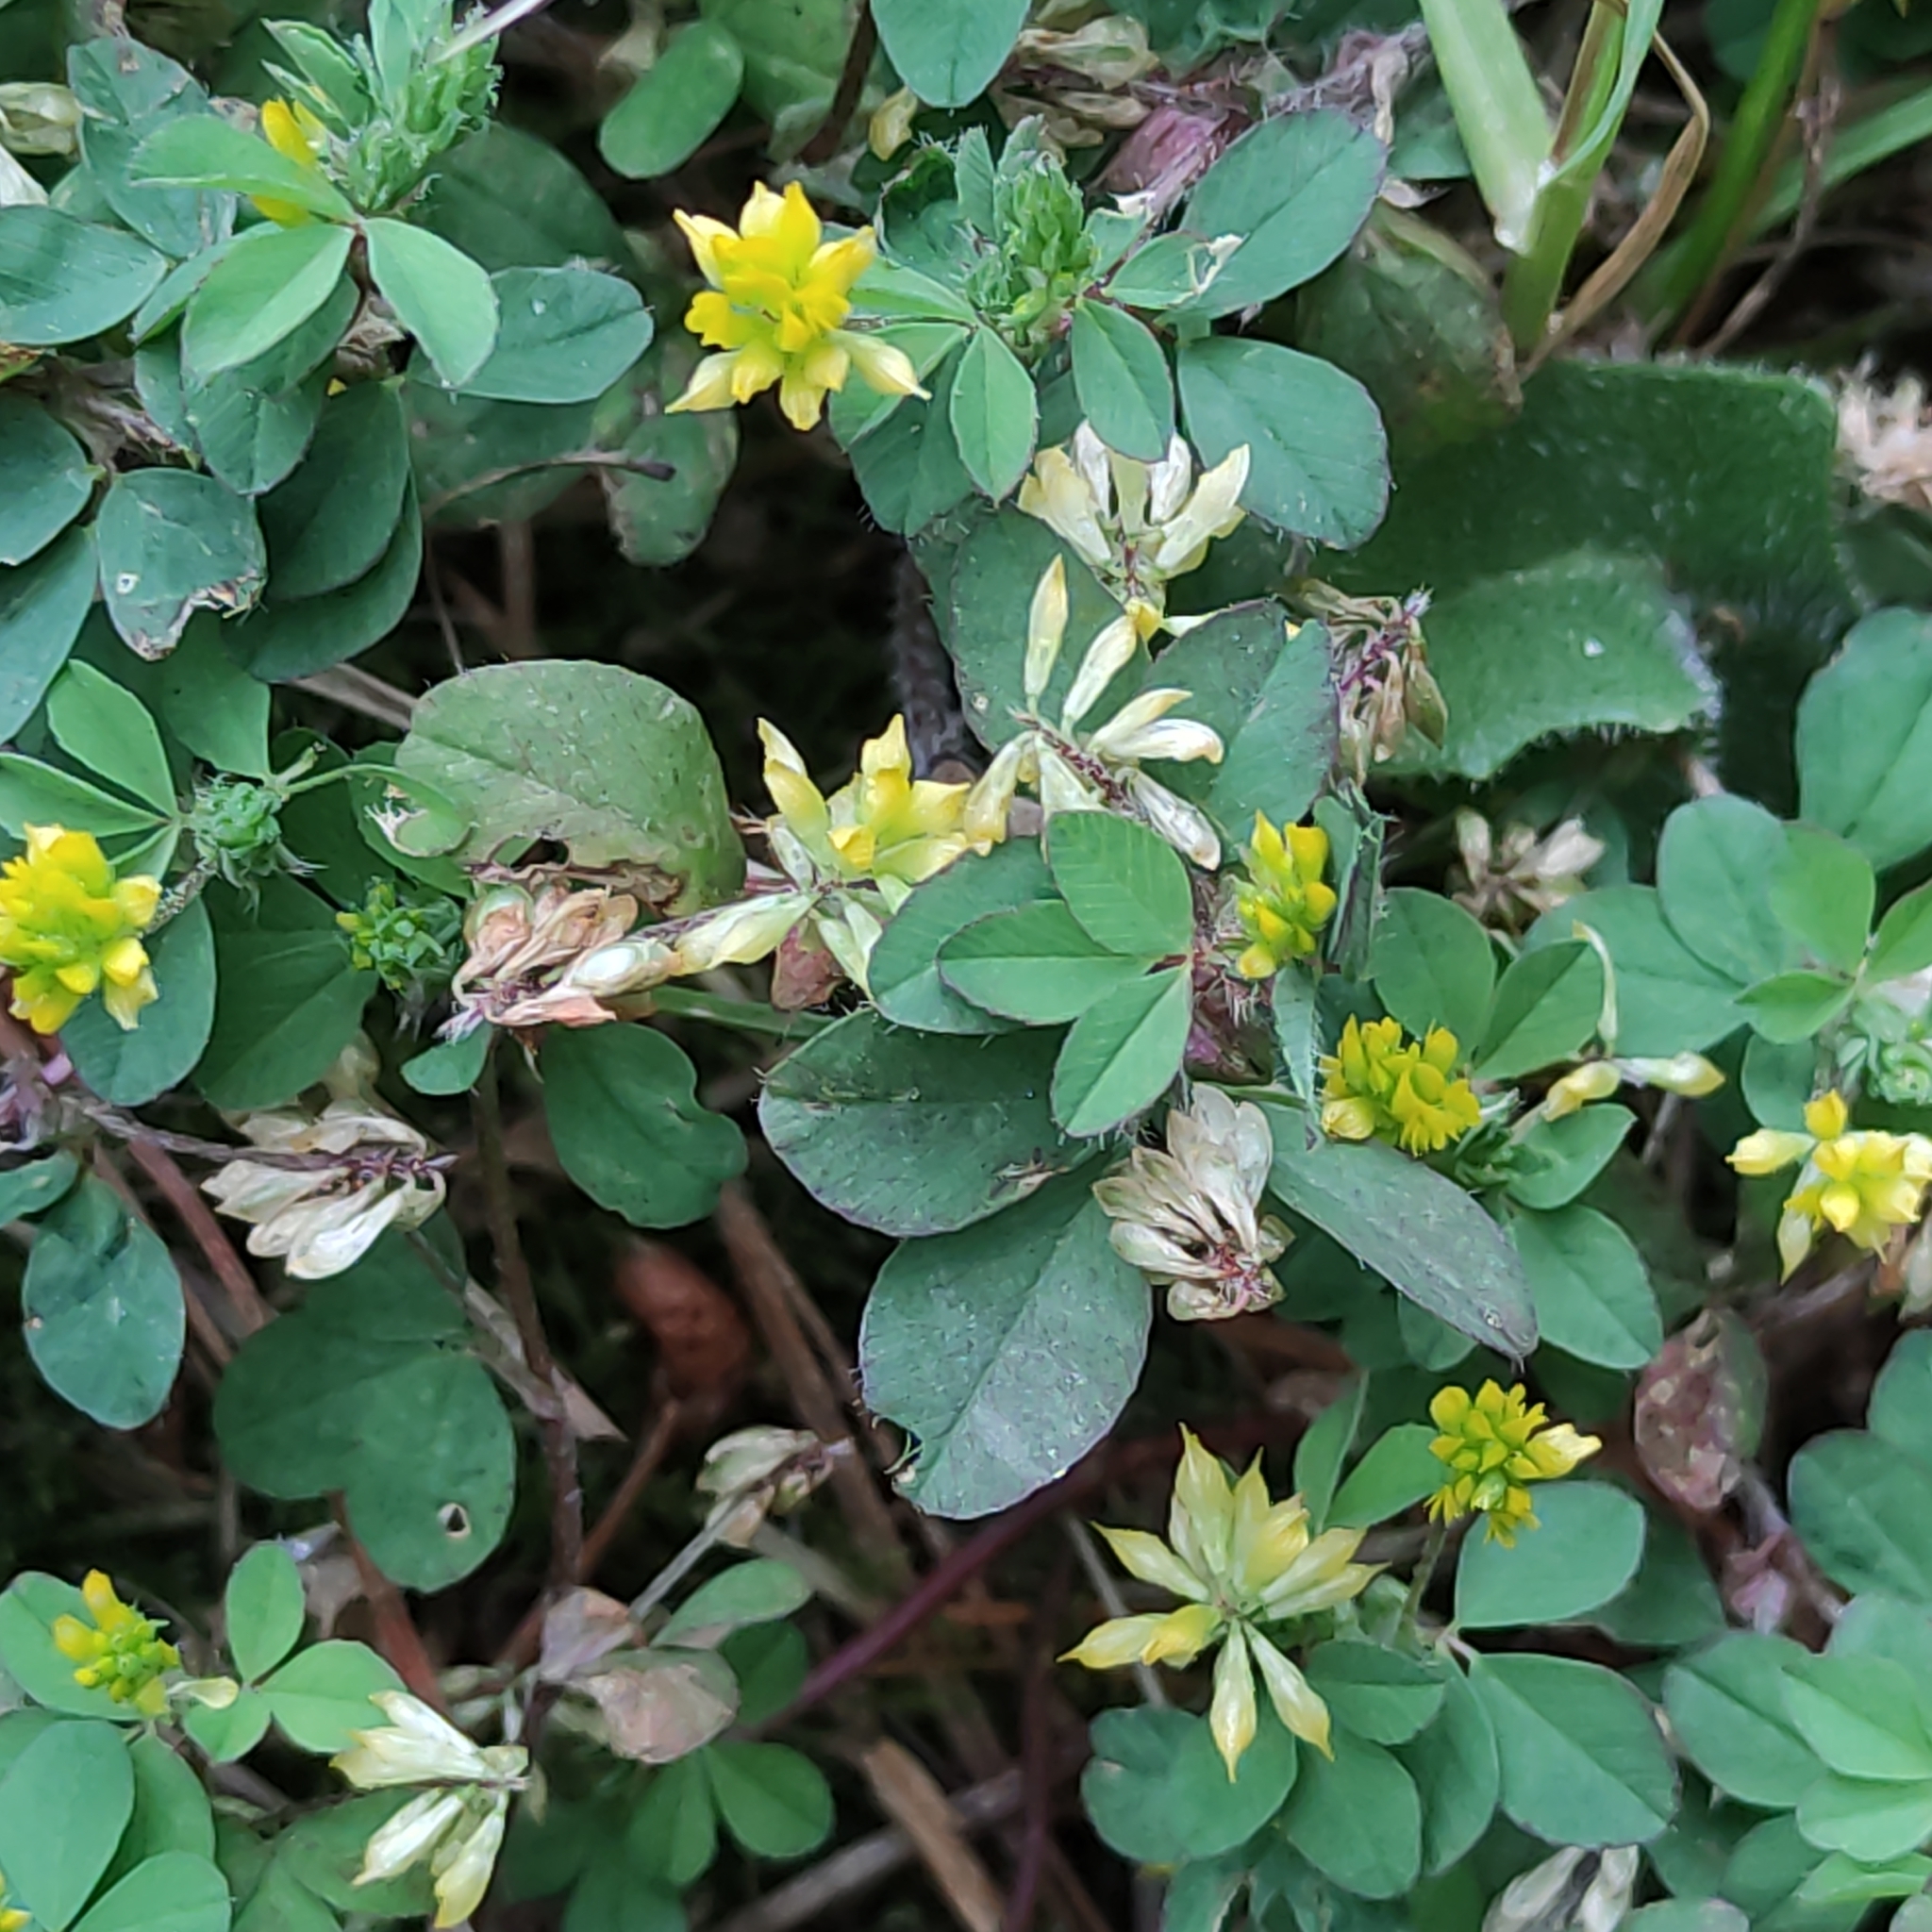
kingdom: Plantae
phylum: Tracheophyta
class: Magnoliopsida
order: Fabales
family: Fabaceae
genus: Trifolium
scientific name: Trifolium dubium
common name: Suckling clover
